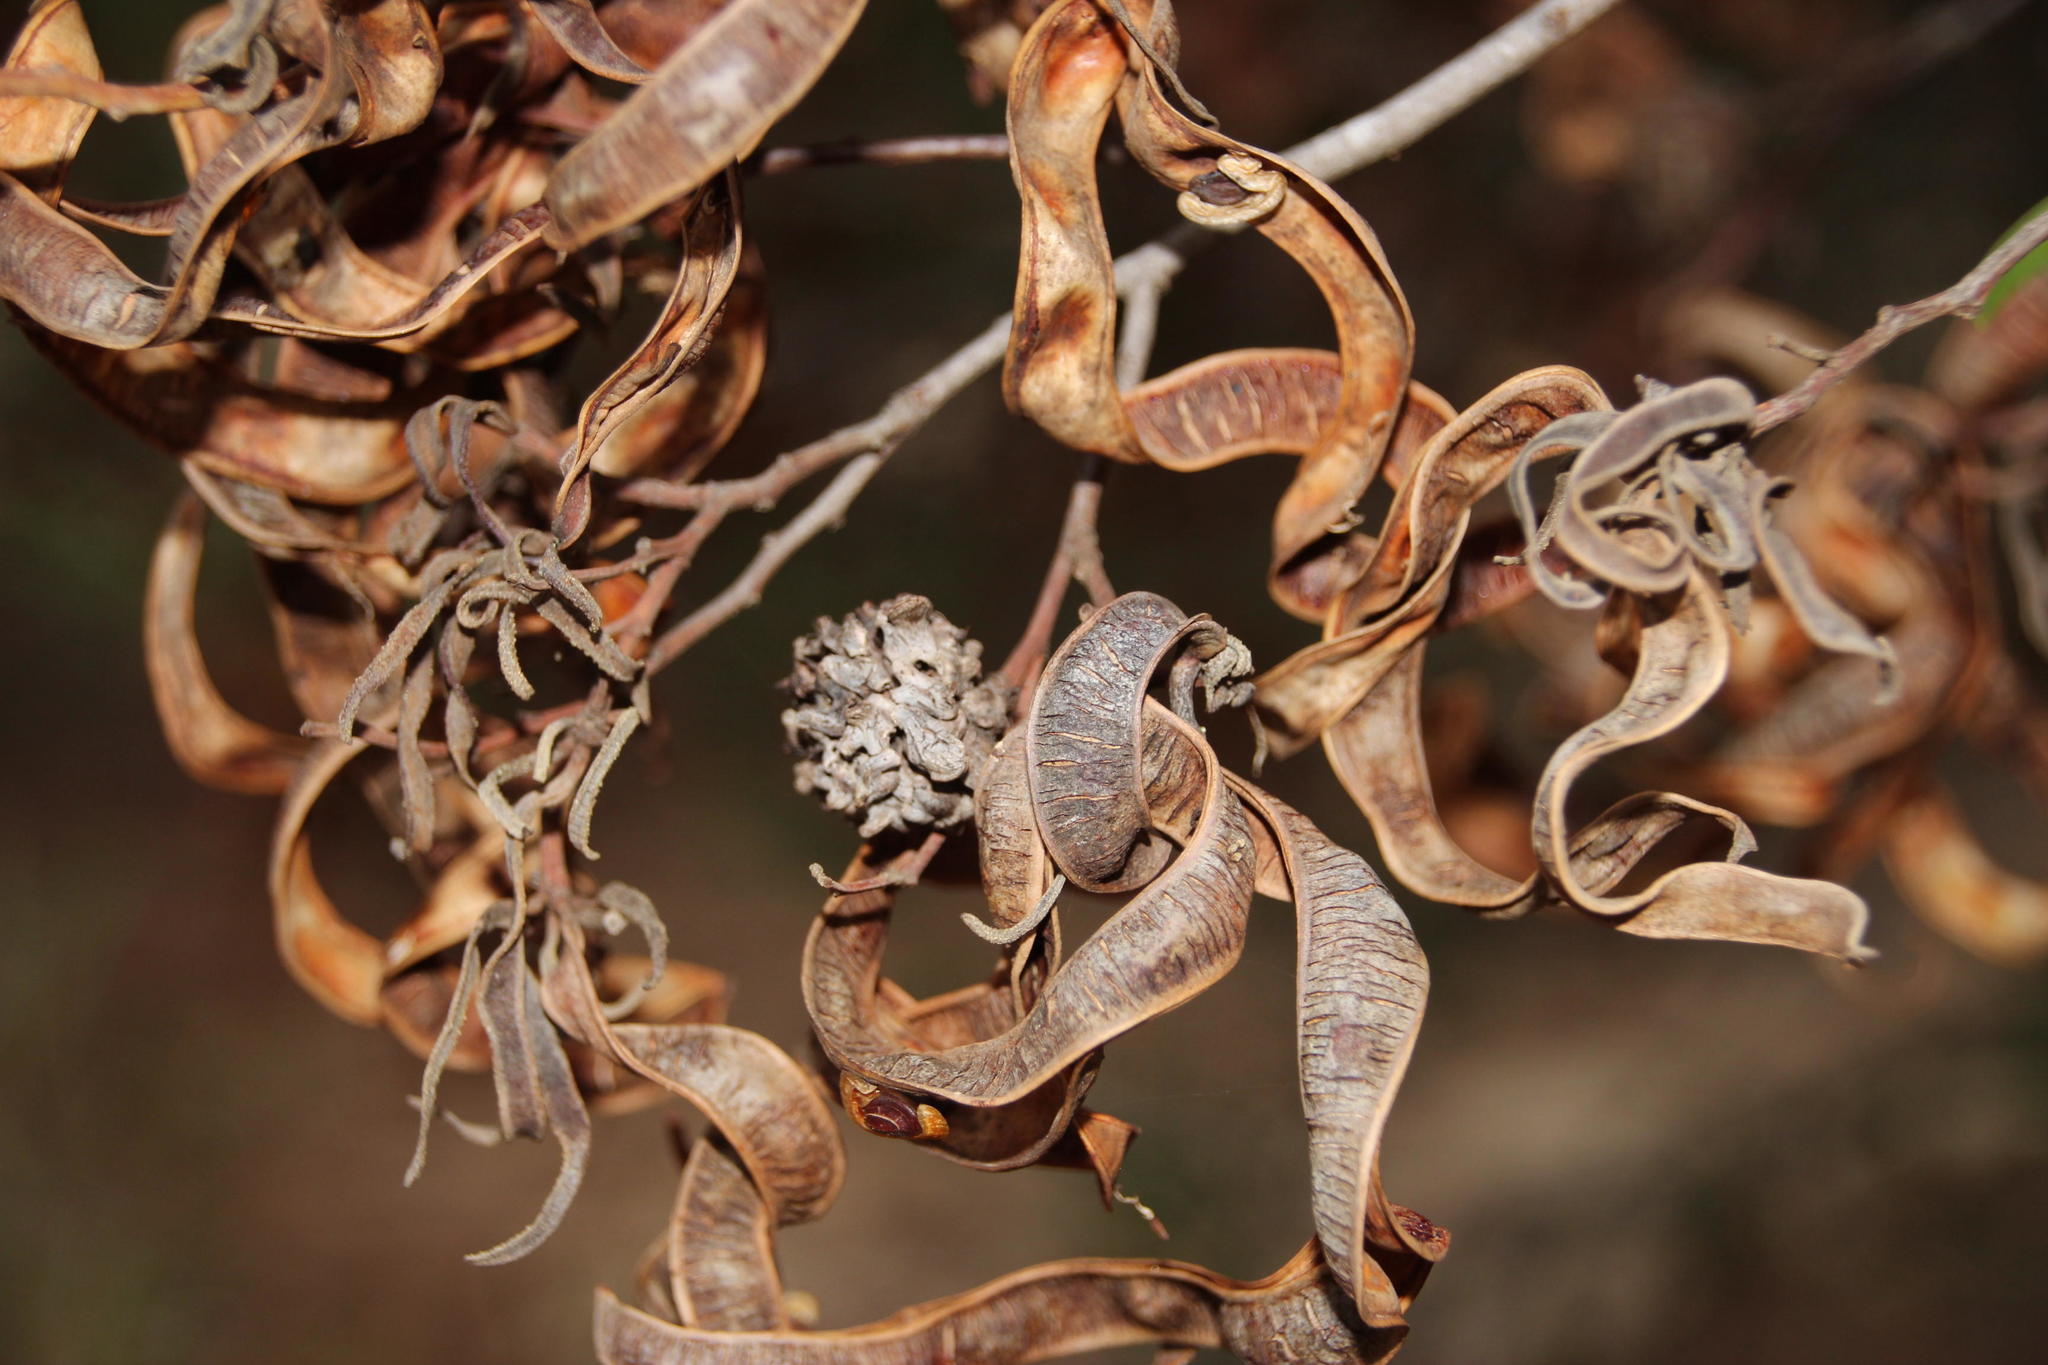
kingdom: Animalia
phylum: Arthropoda
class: Insecta
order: Diptera
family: Cecidomyiidae
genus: Dasineura
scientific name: Dasineura dielsi
